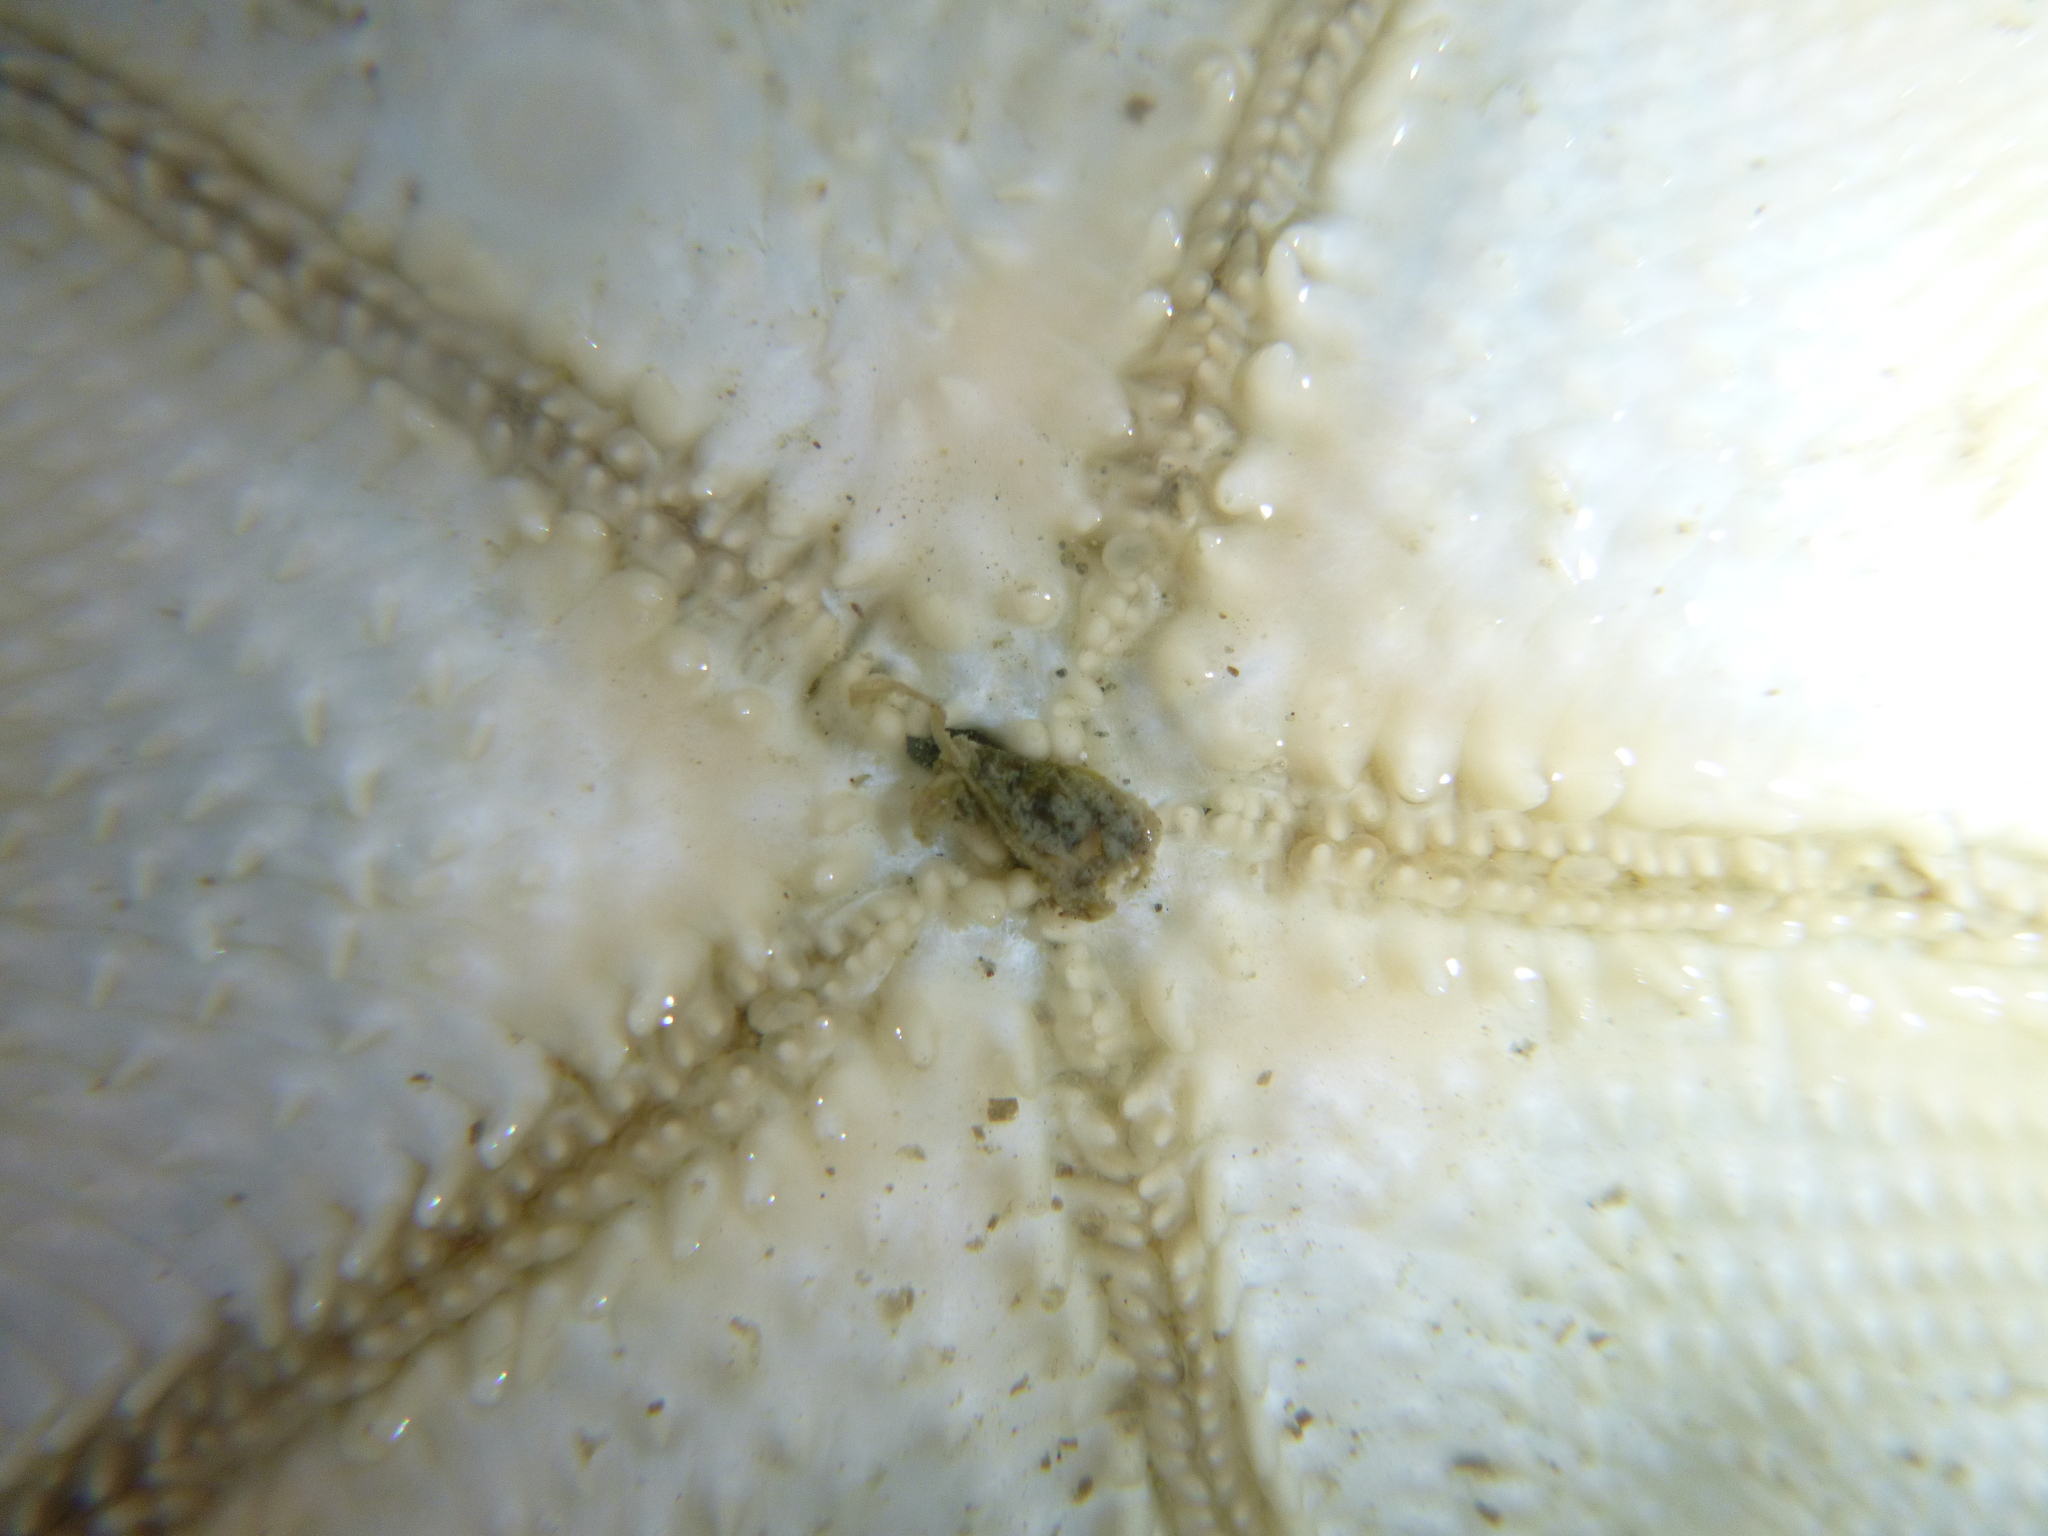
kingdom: Animalia
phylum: Echinodermata
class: Asteroidea
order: Valvatida
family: Asterinidae
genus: Patiriella
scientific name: Patiriella regularis
